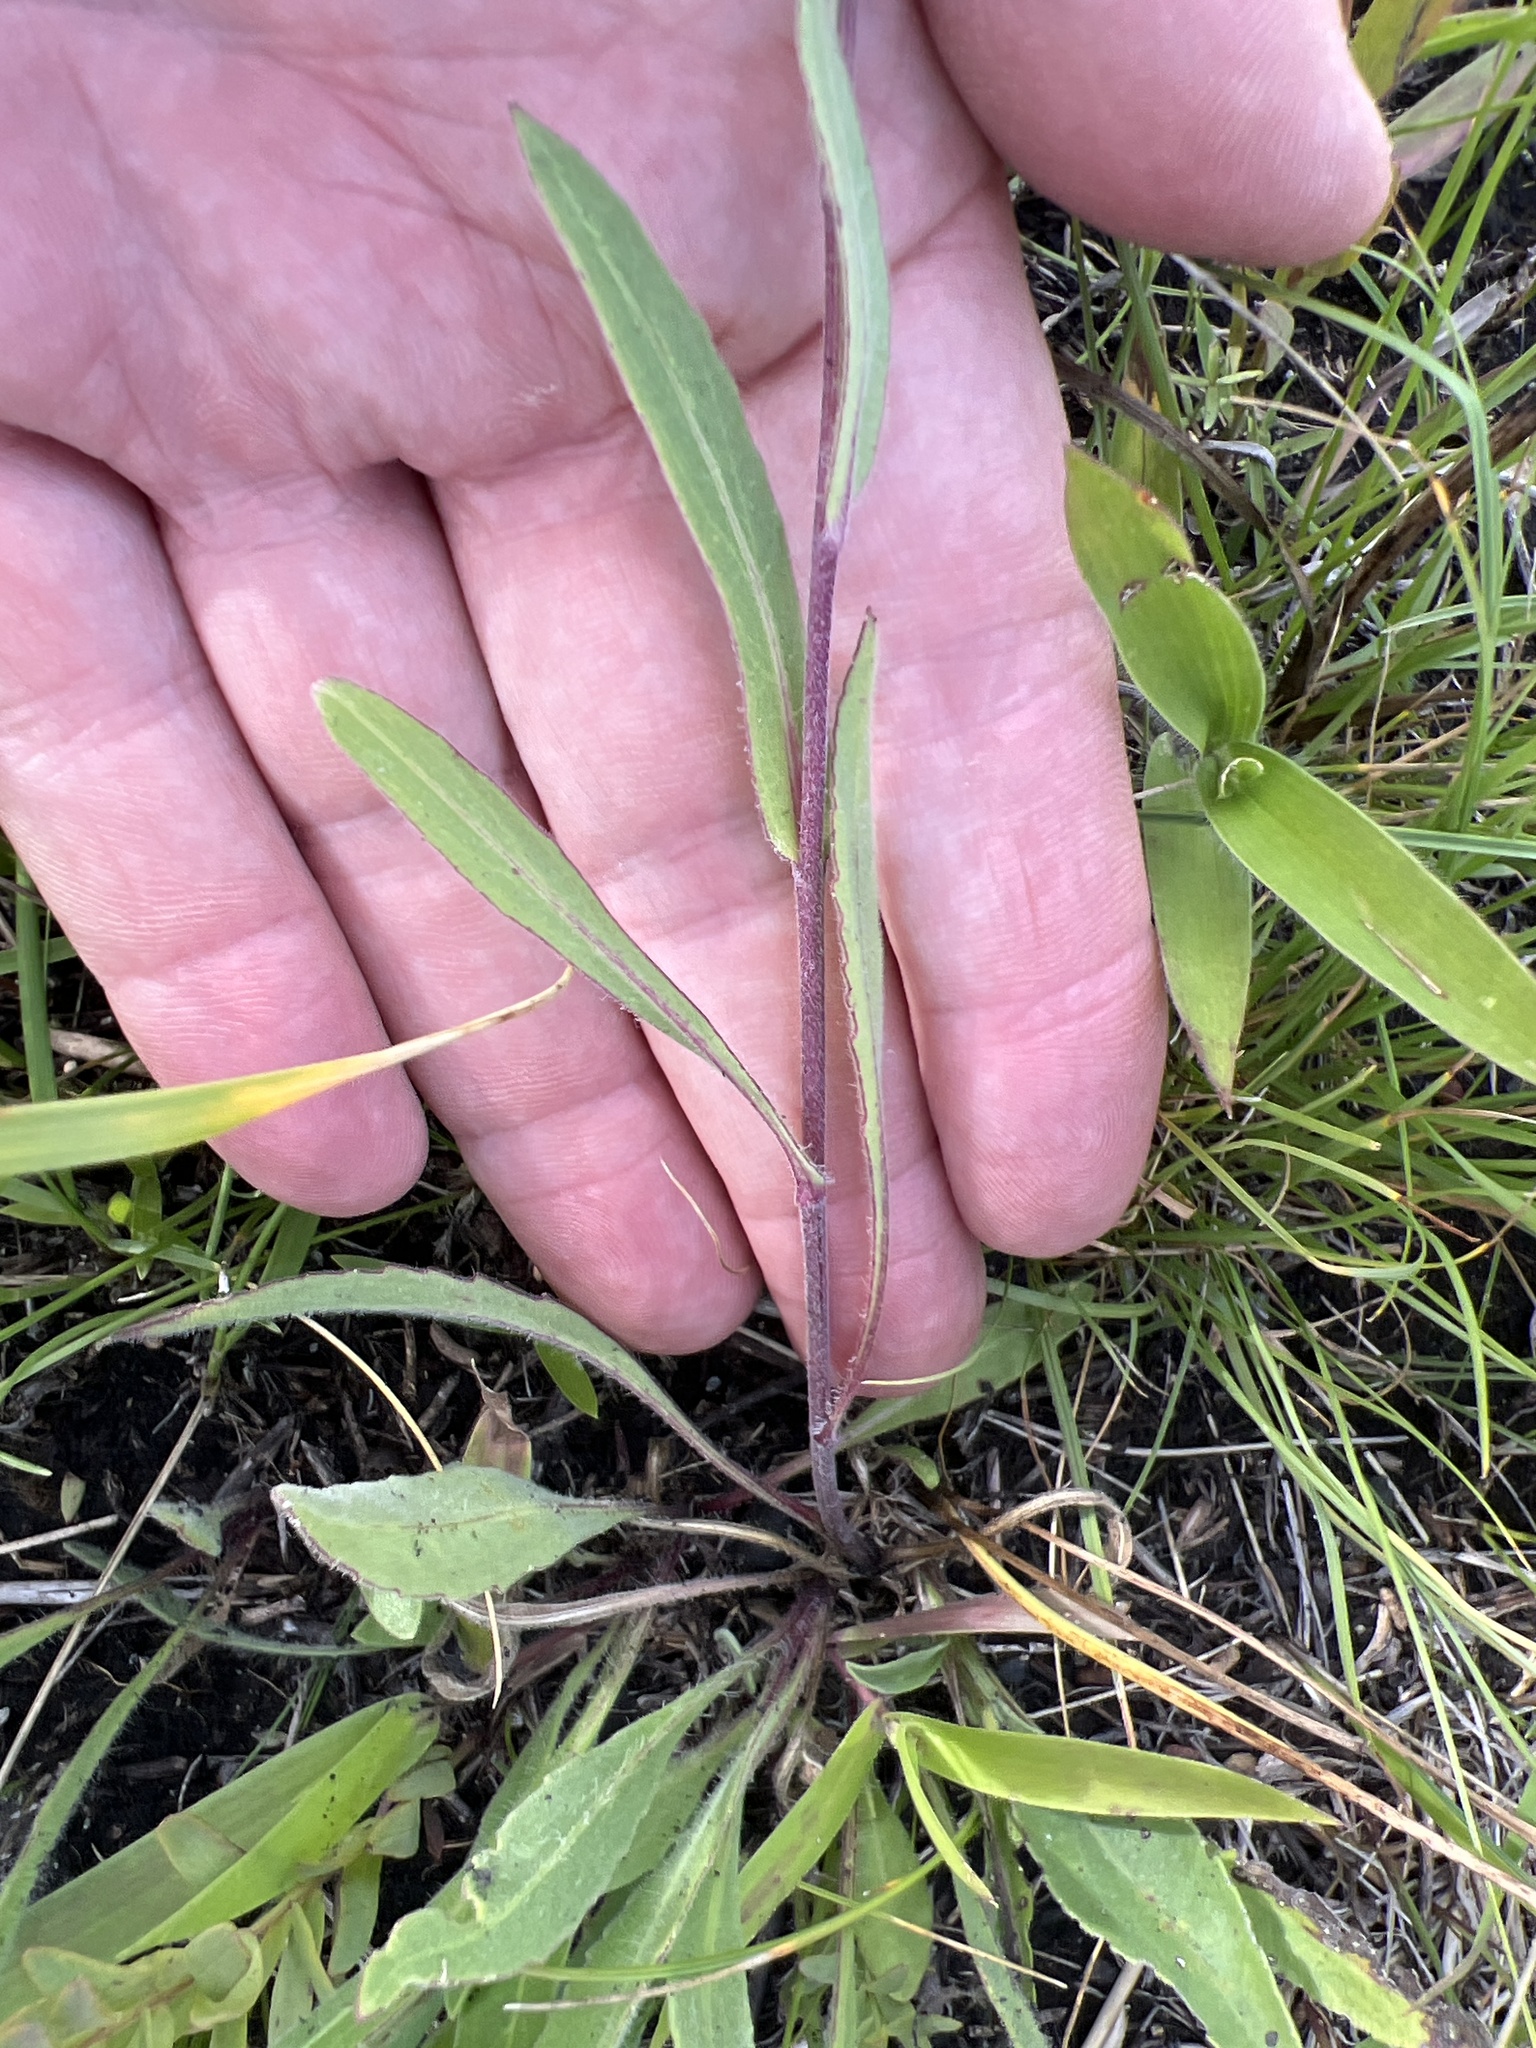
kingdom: Plantae
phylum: Tracheophyta
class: Magnoliopsida
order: Asterales
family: Asteraceae
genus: Gaillardia
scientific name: Gaillardia aristata
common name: Blanket-flower
